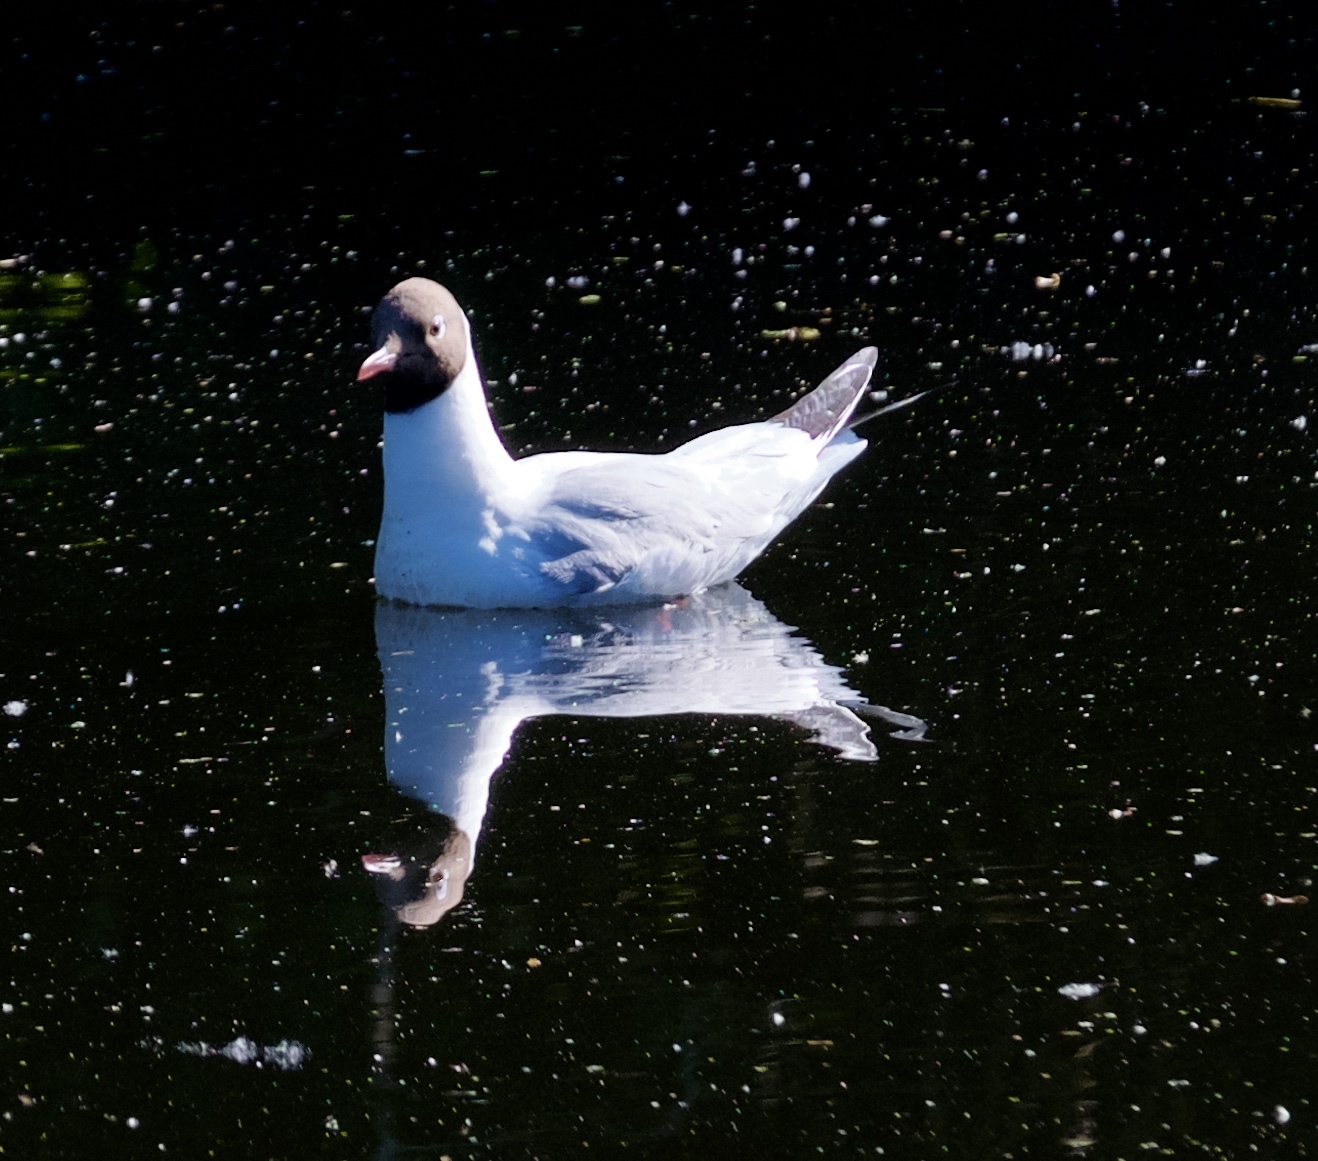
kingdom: Animalia
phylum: Chordata
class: Aves
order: Charadriiformes
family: Laridae
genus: Chroicocephalus
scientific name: Chroicocephalus ridibundus
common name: Black-headed gull
